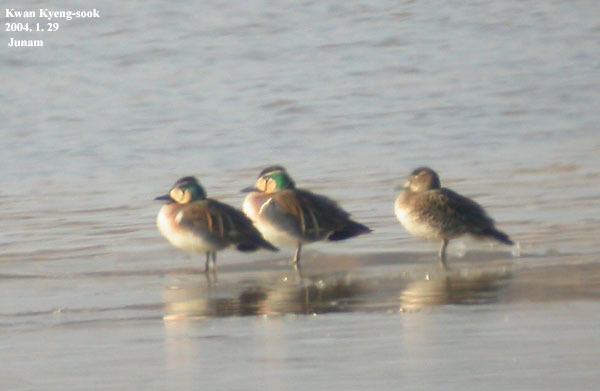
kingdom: Animalia
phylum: Chordata
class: Aves
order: Anseriformes
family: Anatidae
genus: Sibirionetta
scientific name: Sibirionetta formosa
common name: Baikal teal
